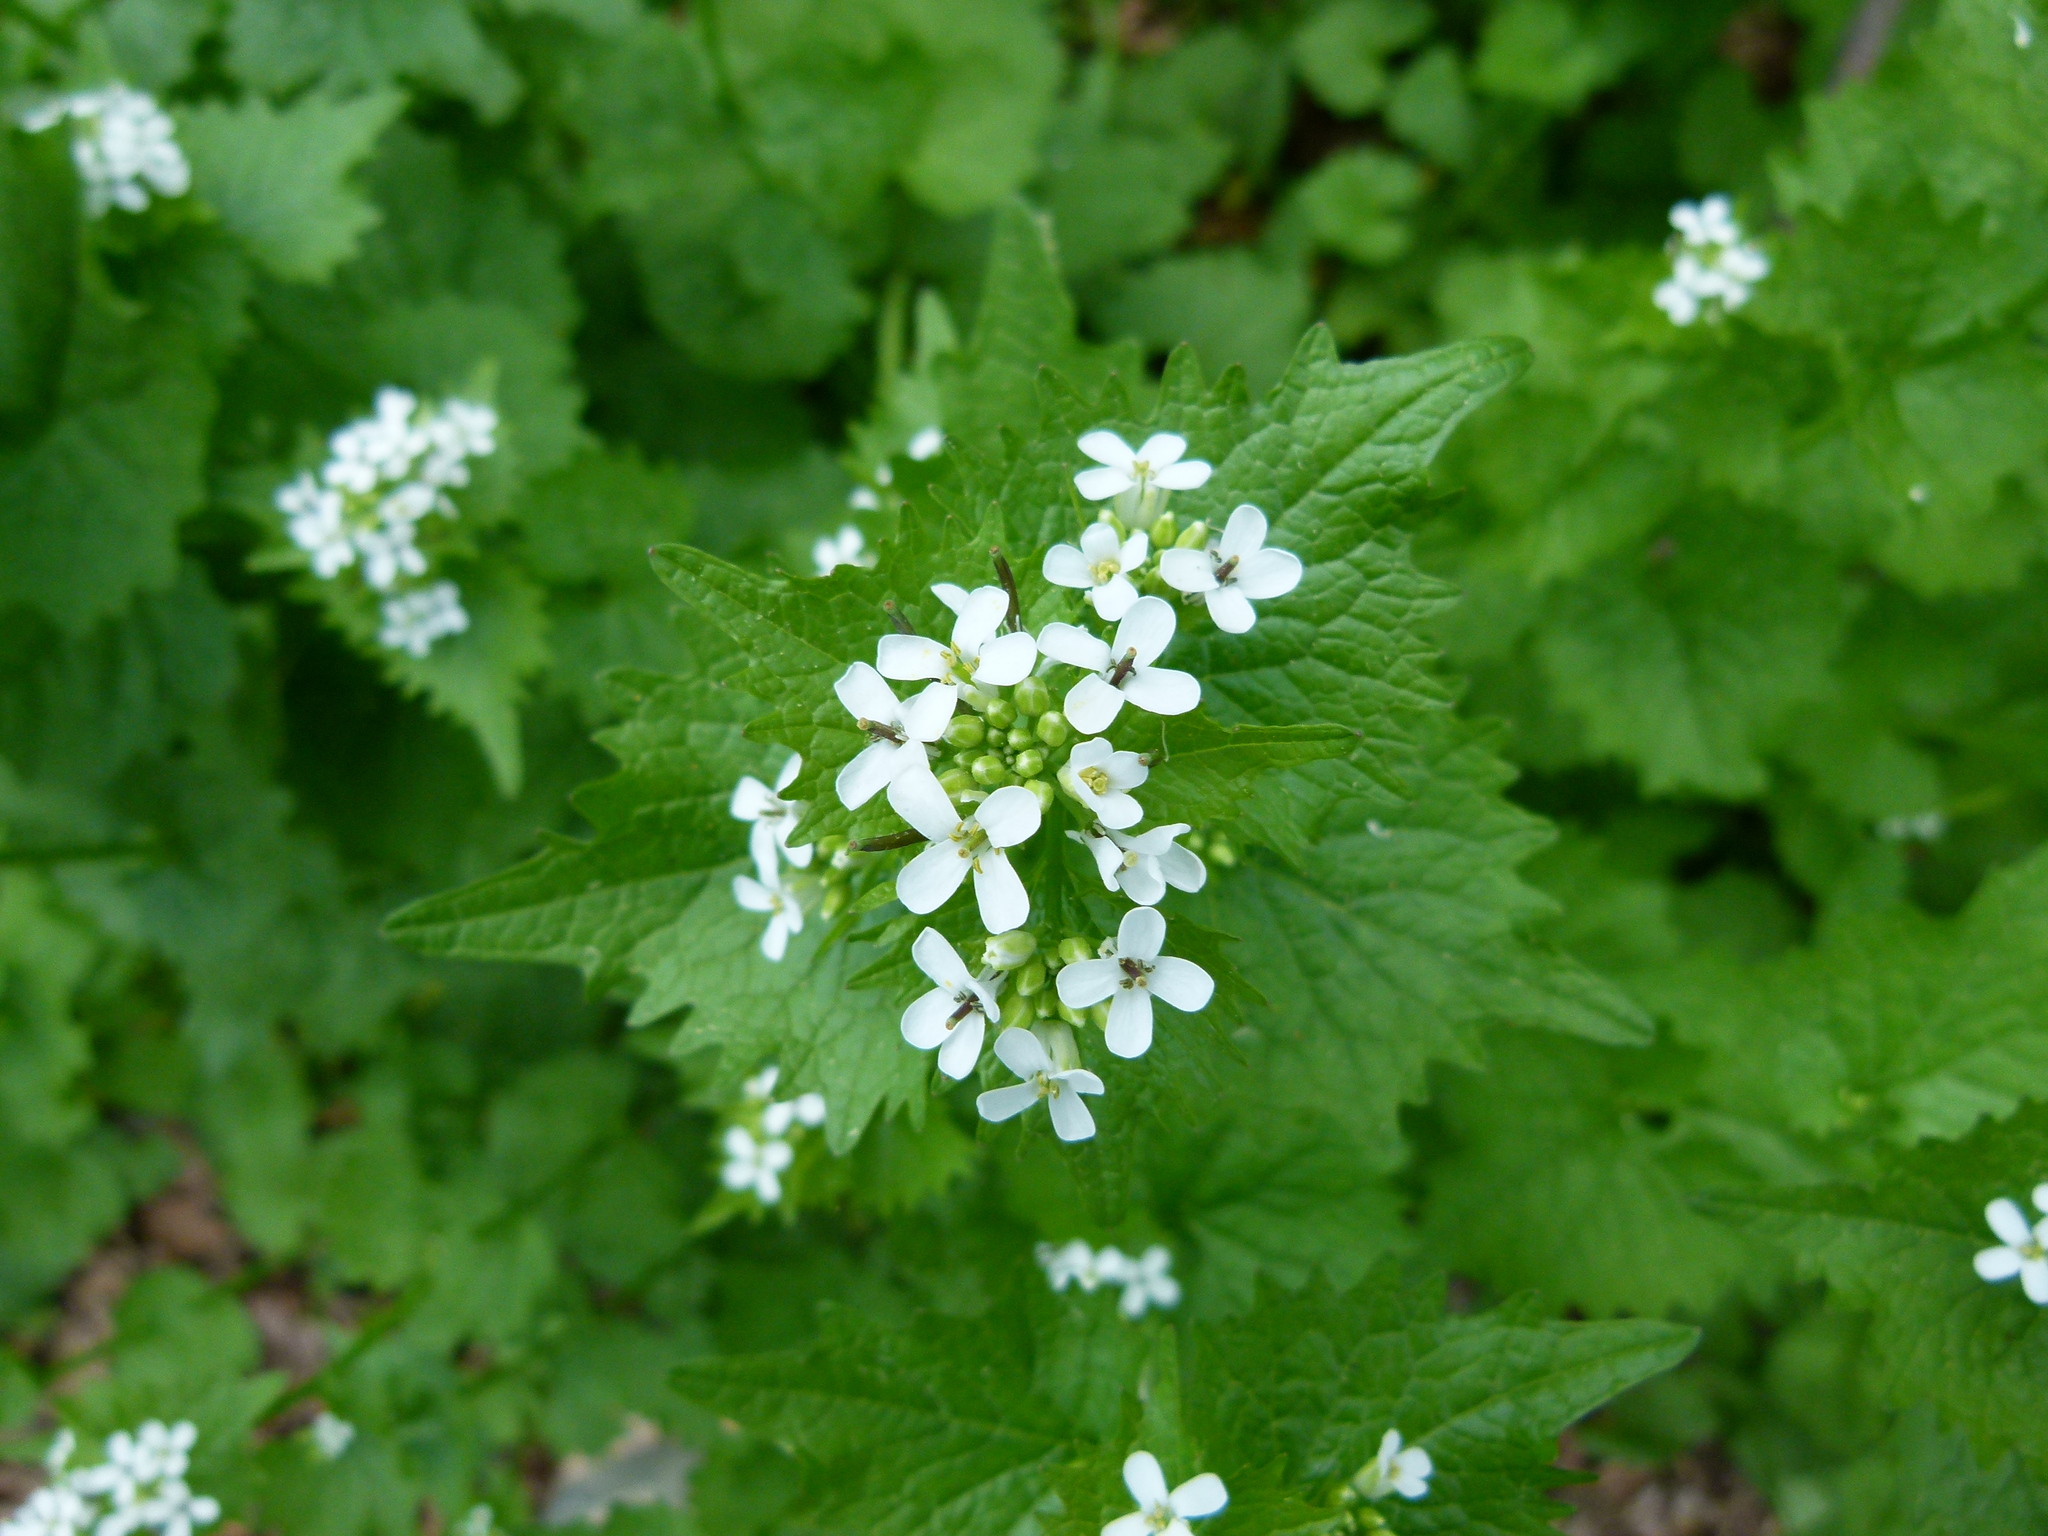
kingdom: Plantae
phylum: Tracheophyta
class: Magnoliopsida
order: Brassicales
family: Brassicaceae
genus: Alliaria
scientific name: Alliaria petiolata
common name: Garlic mustard
